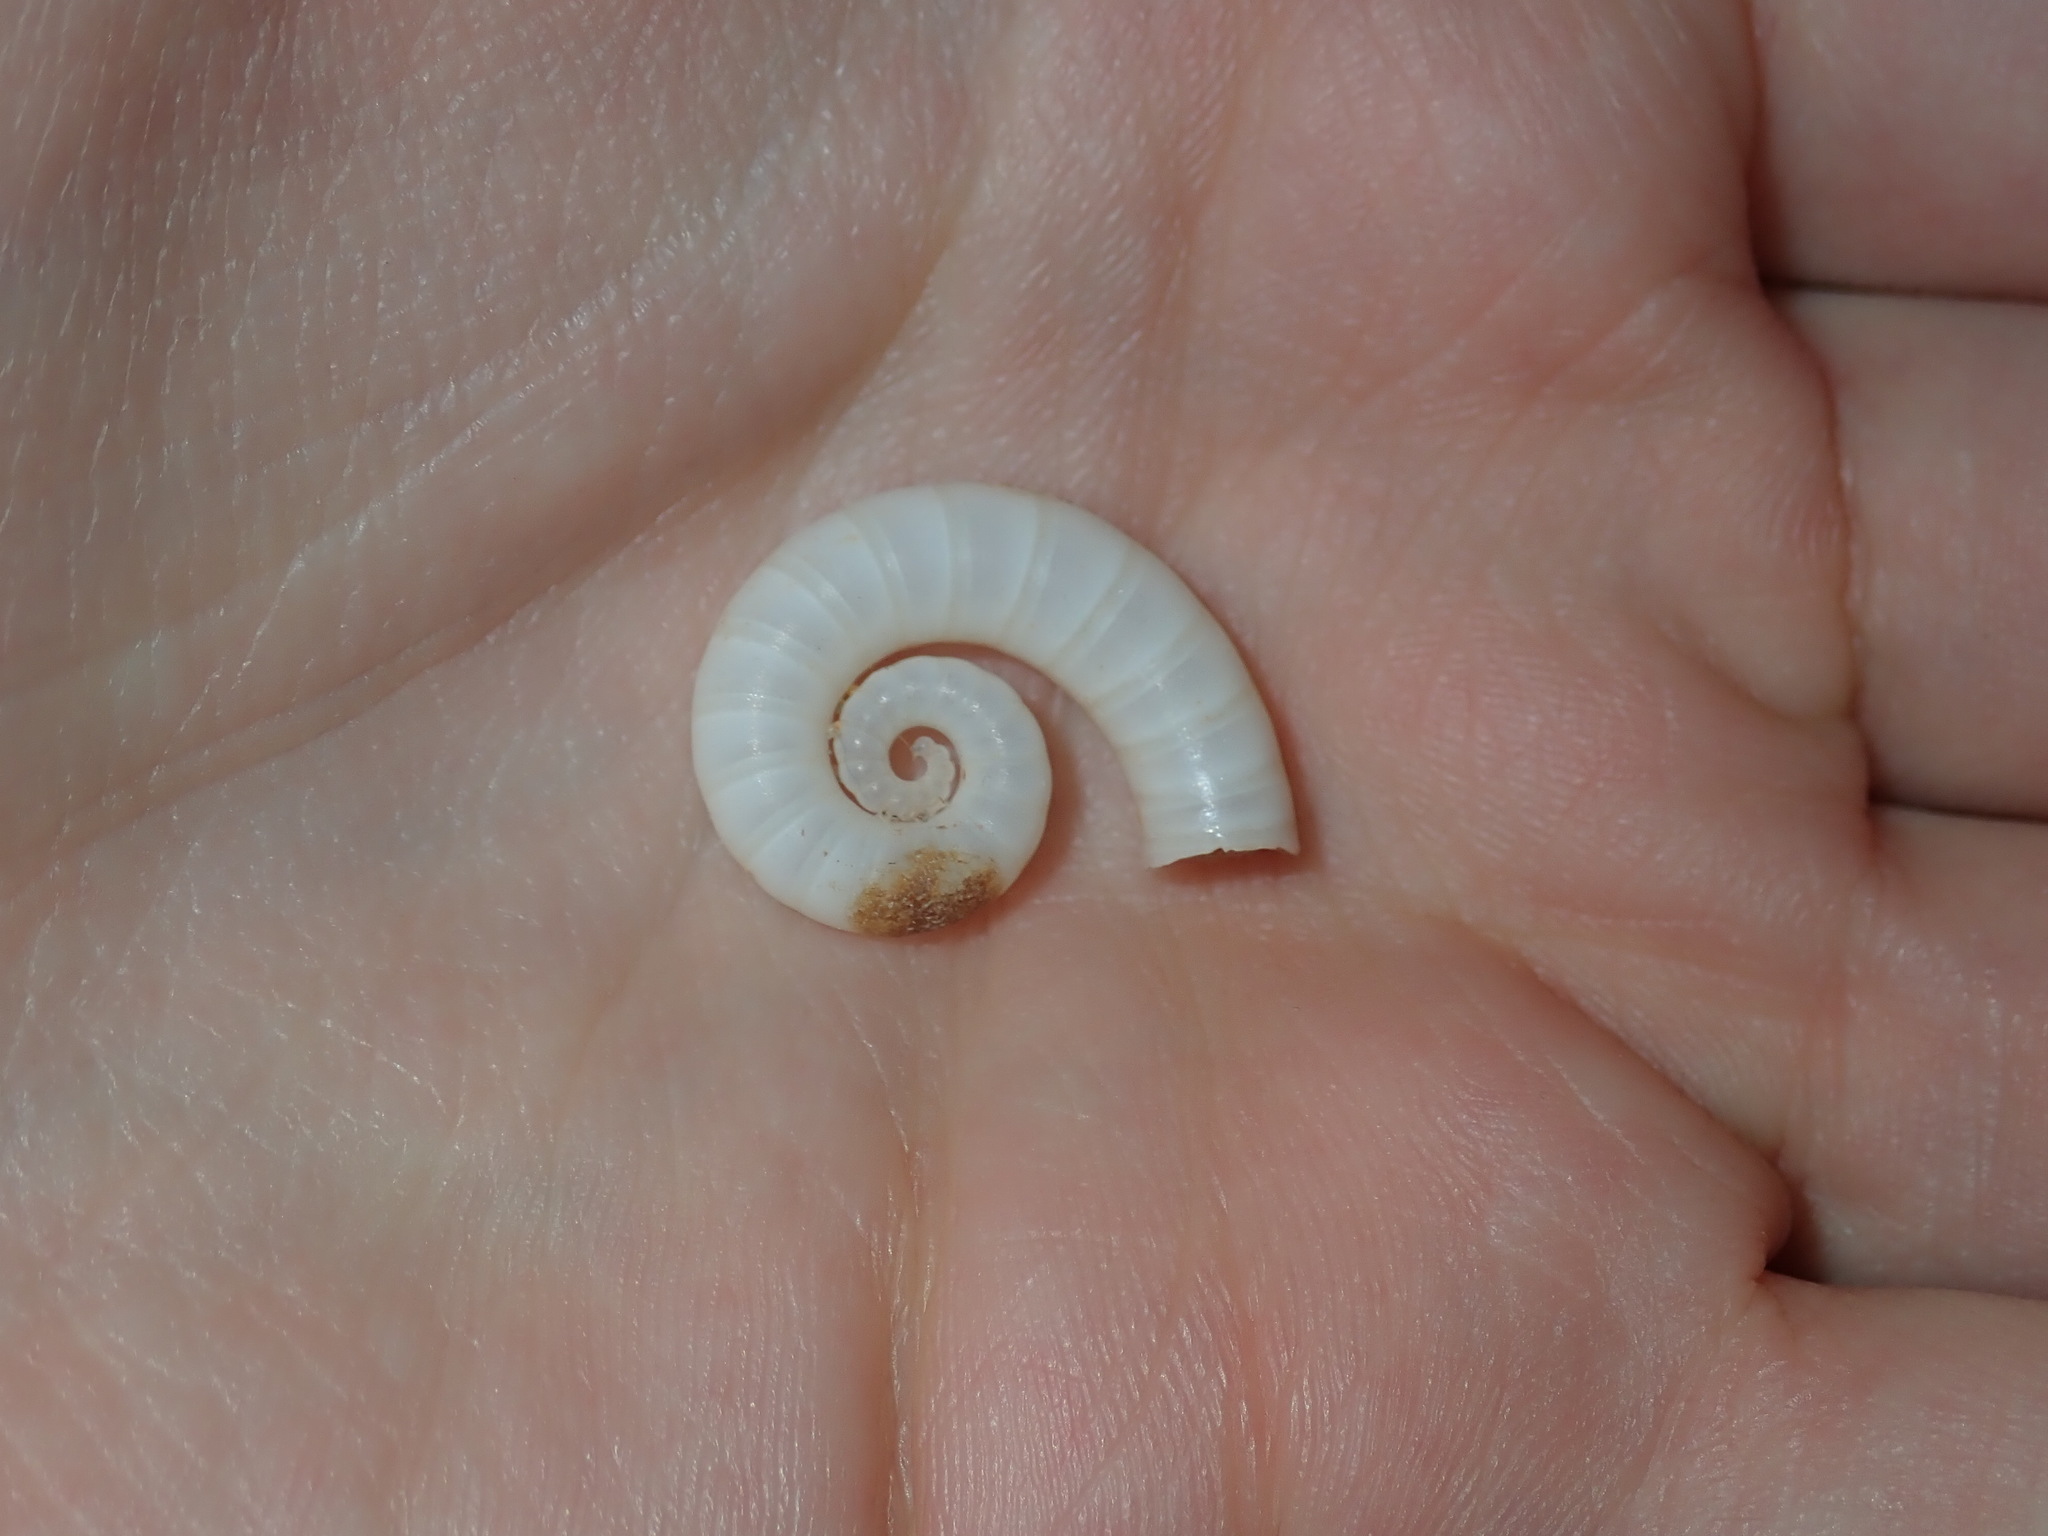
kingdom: Animalia
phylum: Mollusca
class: Cephalopoda
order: Spirulida
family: Spirulidae
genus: Spirula
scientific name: Spirula spirula
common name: Ram's horn squid
